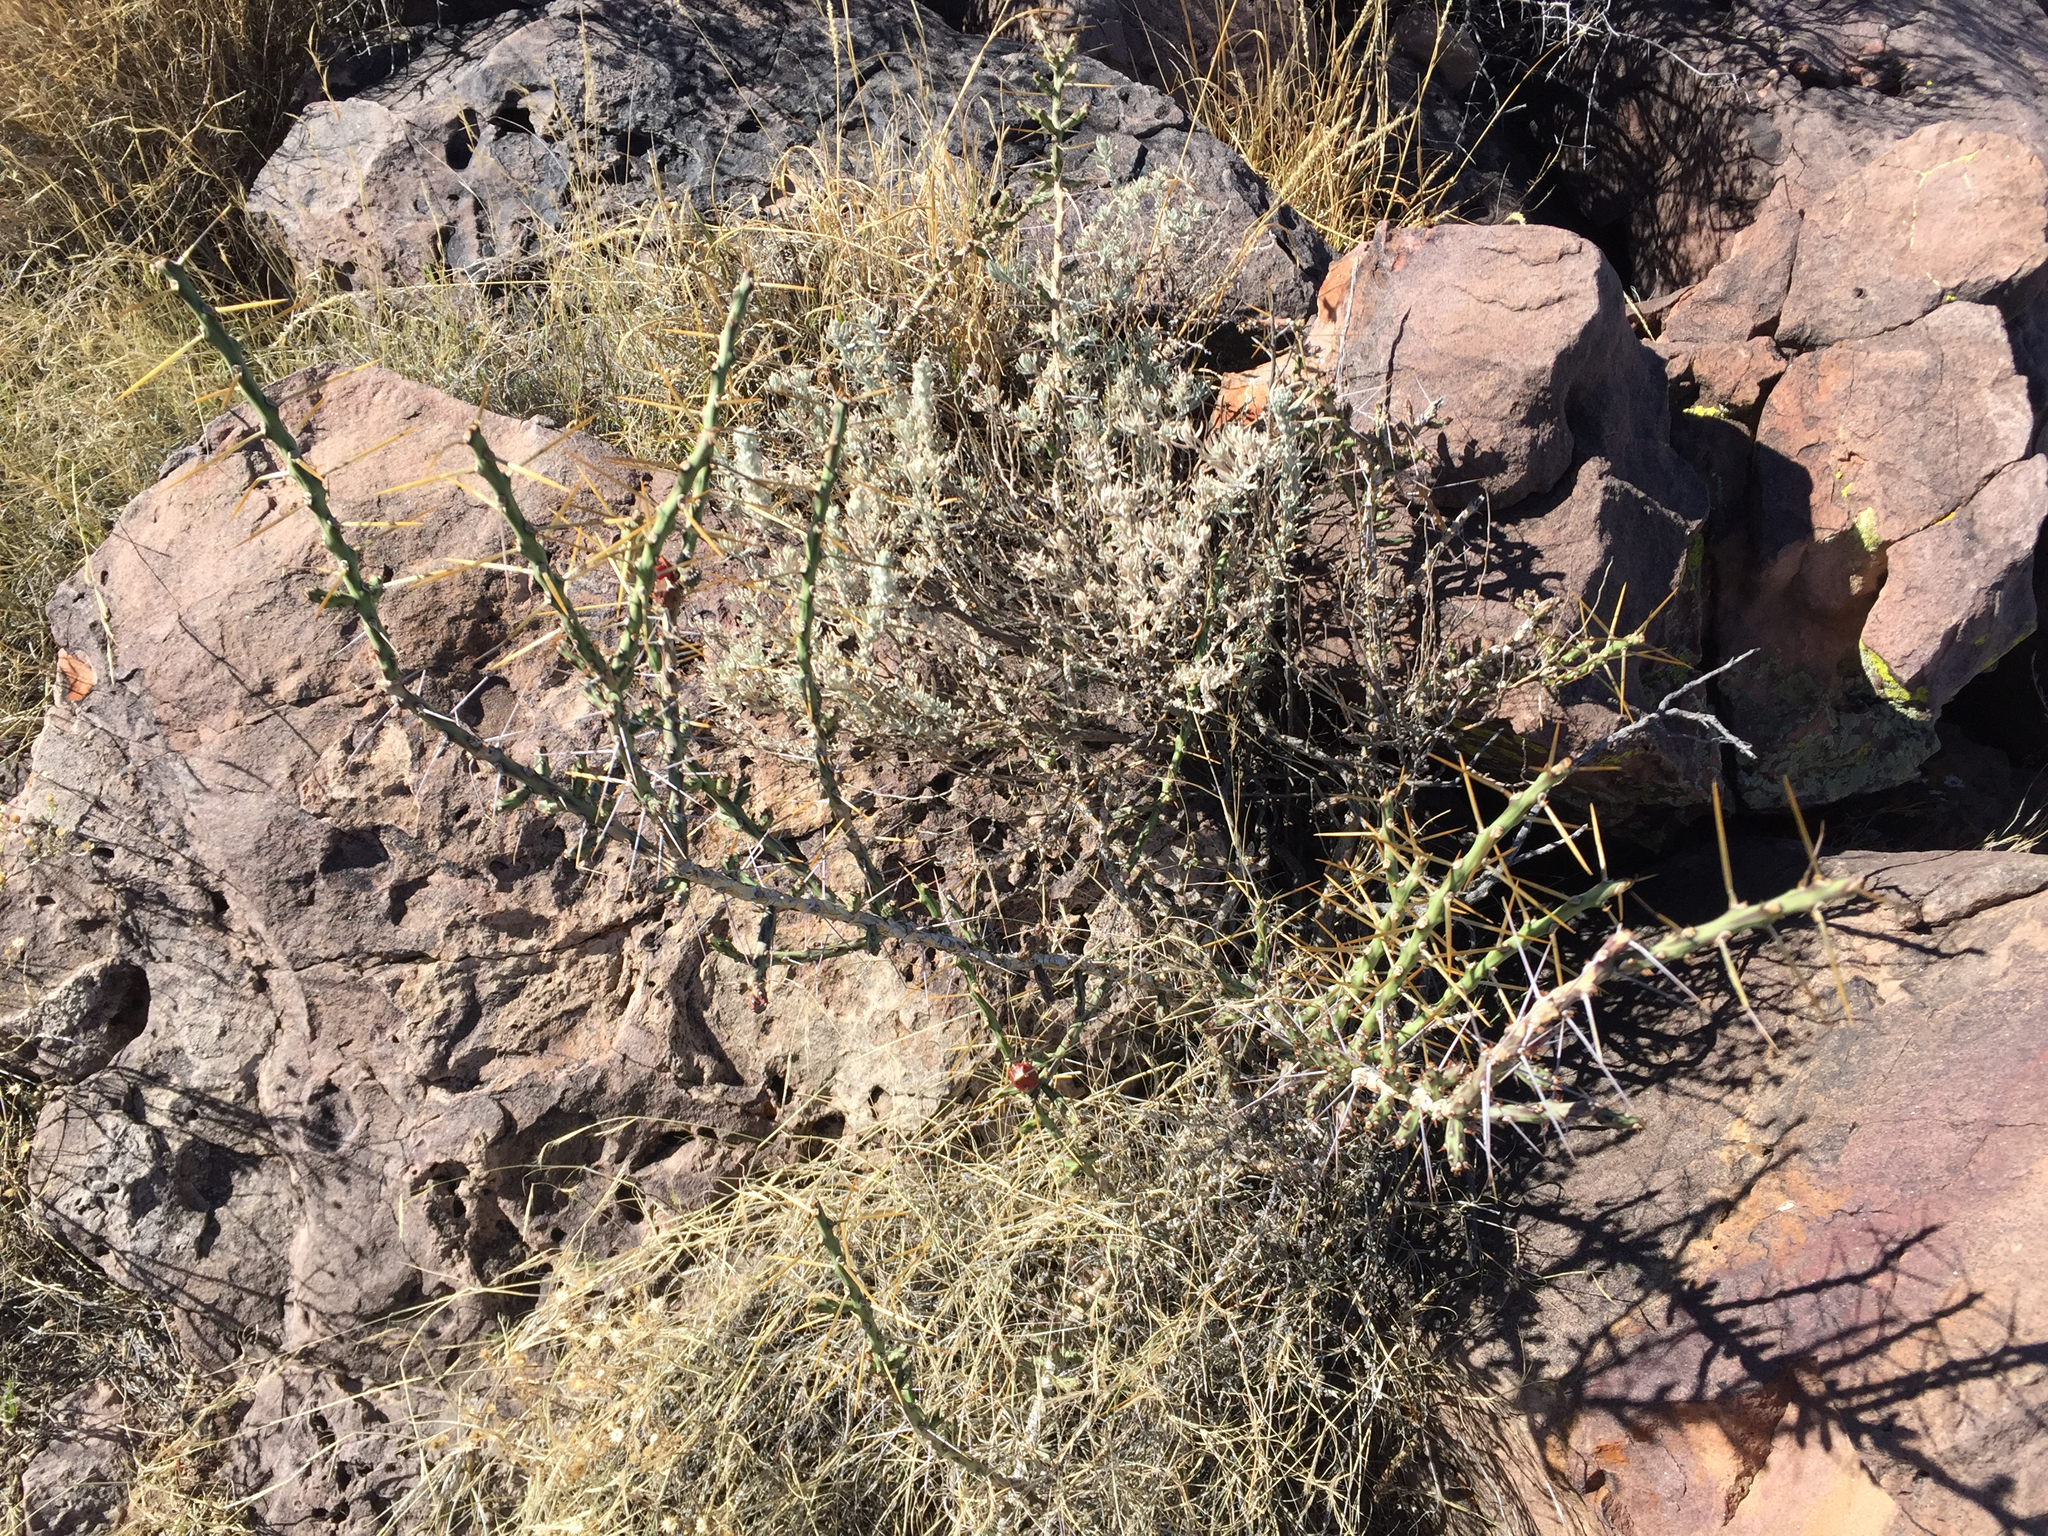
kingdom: Plantae
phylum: Tracheophyta
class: Magnoliopsida
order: Caryophyllales
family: Cactaceae
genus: Cylindropuntia
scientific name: Cylindropuntia leptocaulis
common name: Christmas cactus
